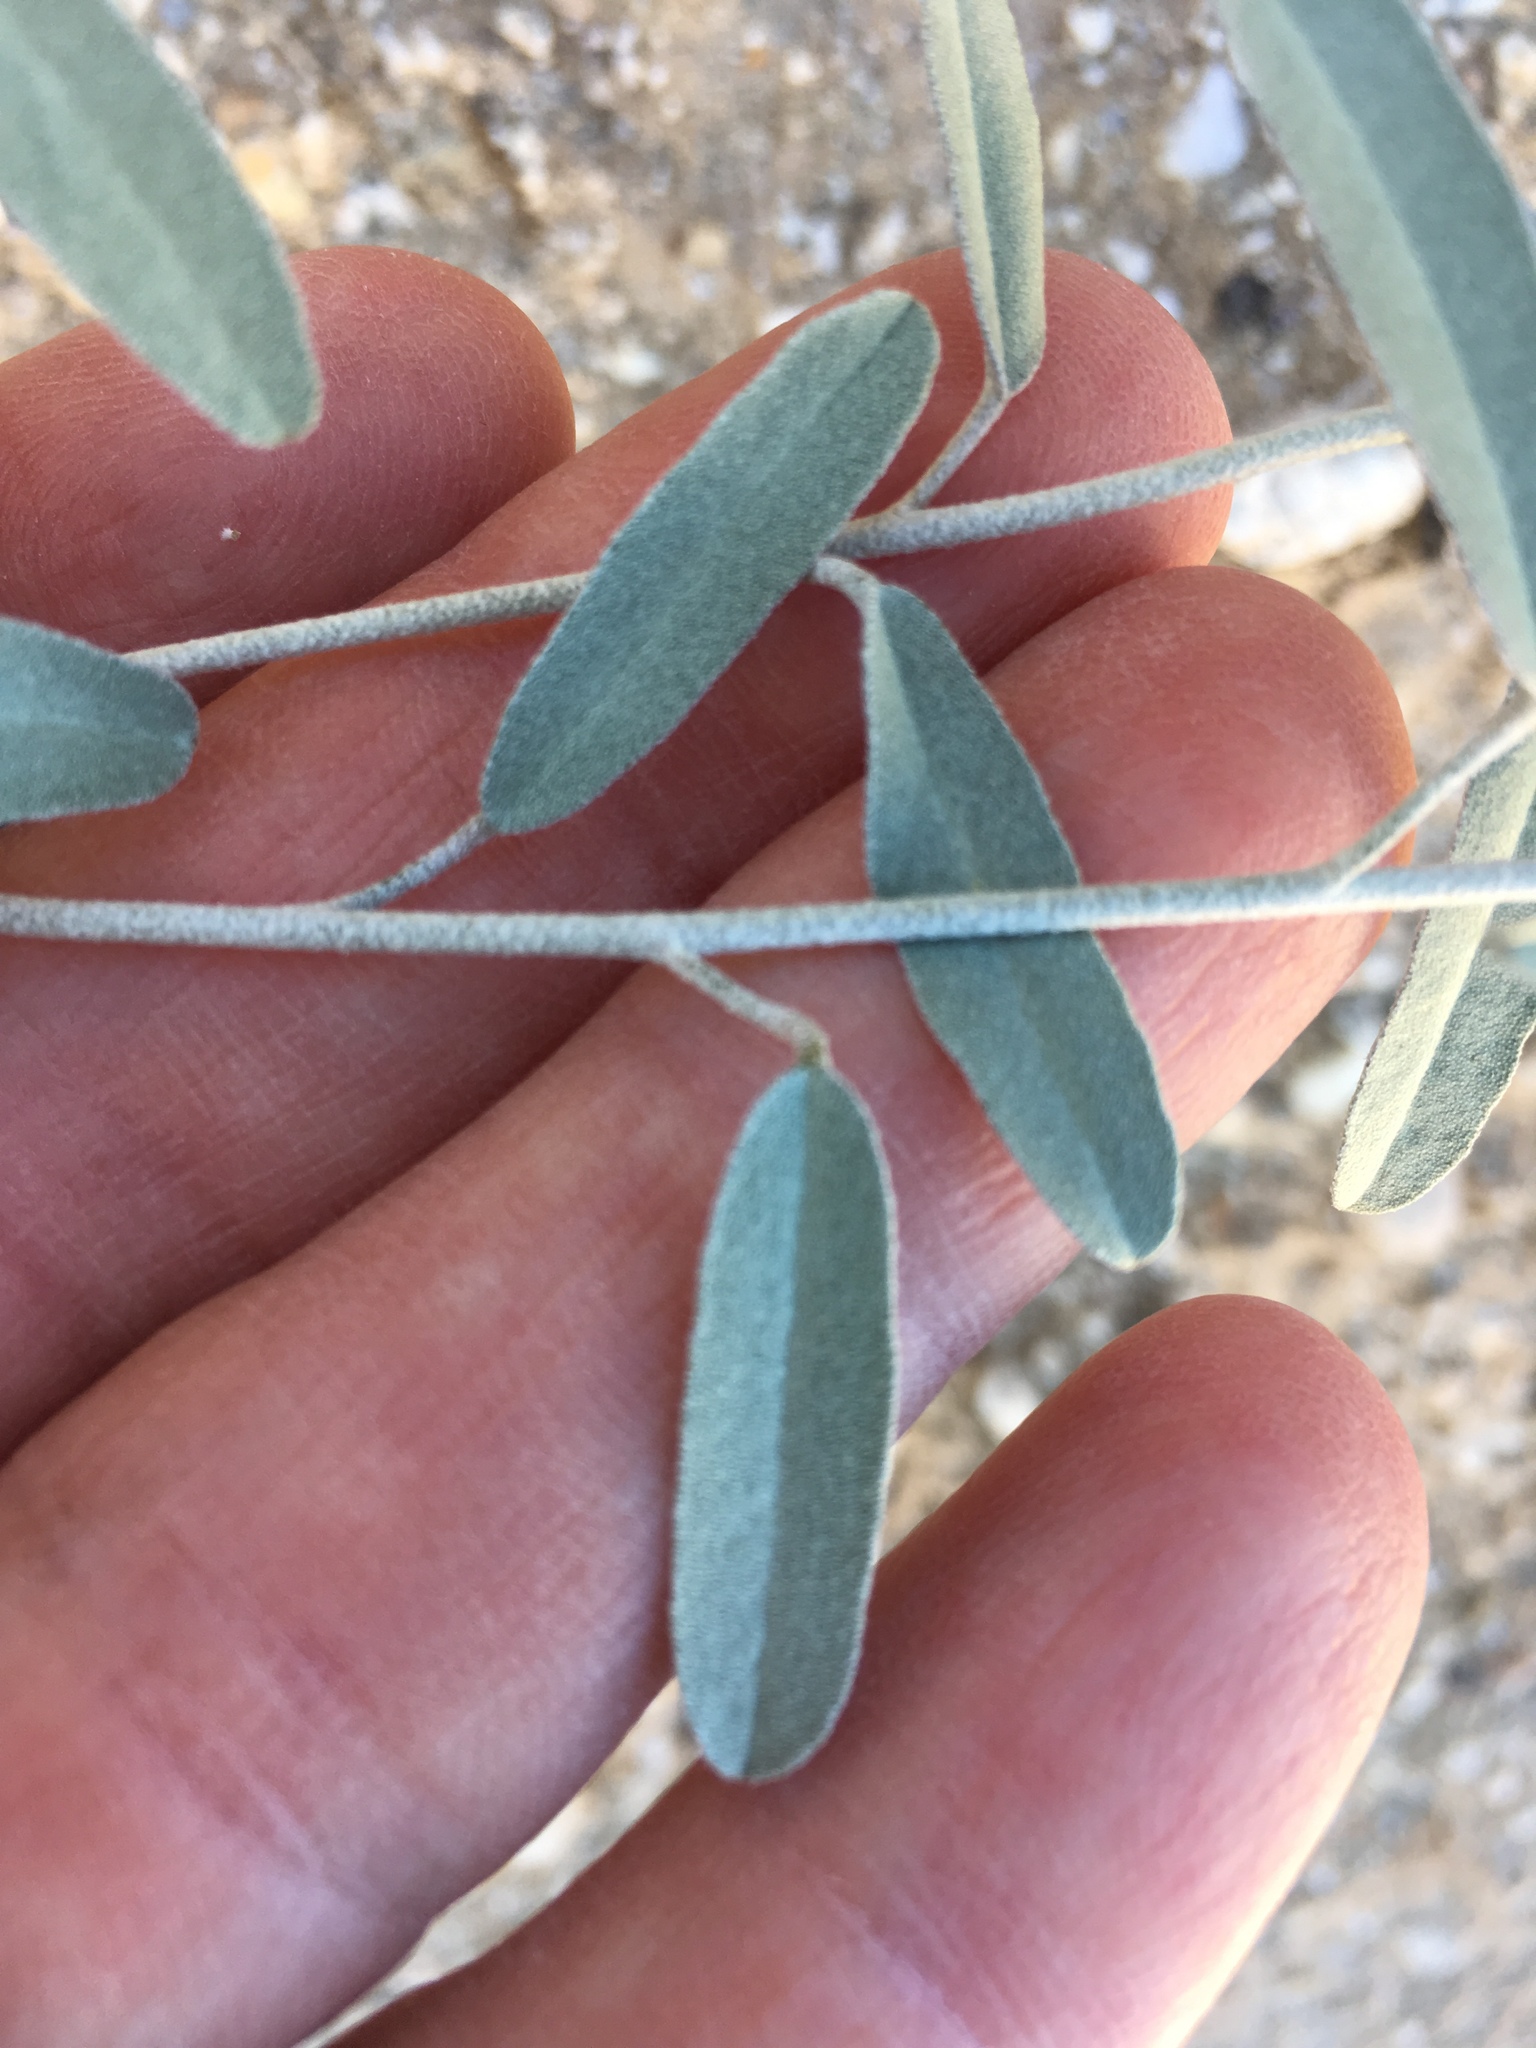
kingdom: Plantae
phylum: Tracheophyta
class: Magnoliopsida
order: Malpighiales
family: Euphorbiaceae
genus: Croton
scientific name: Croton californicus
